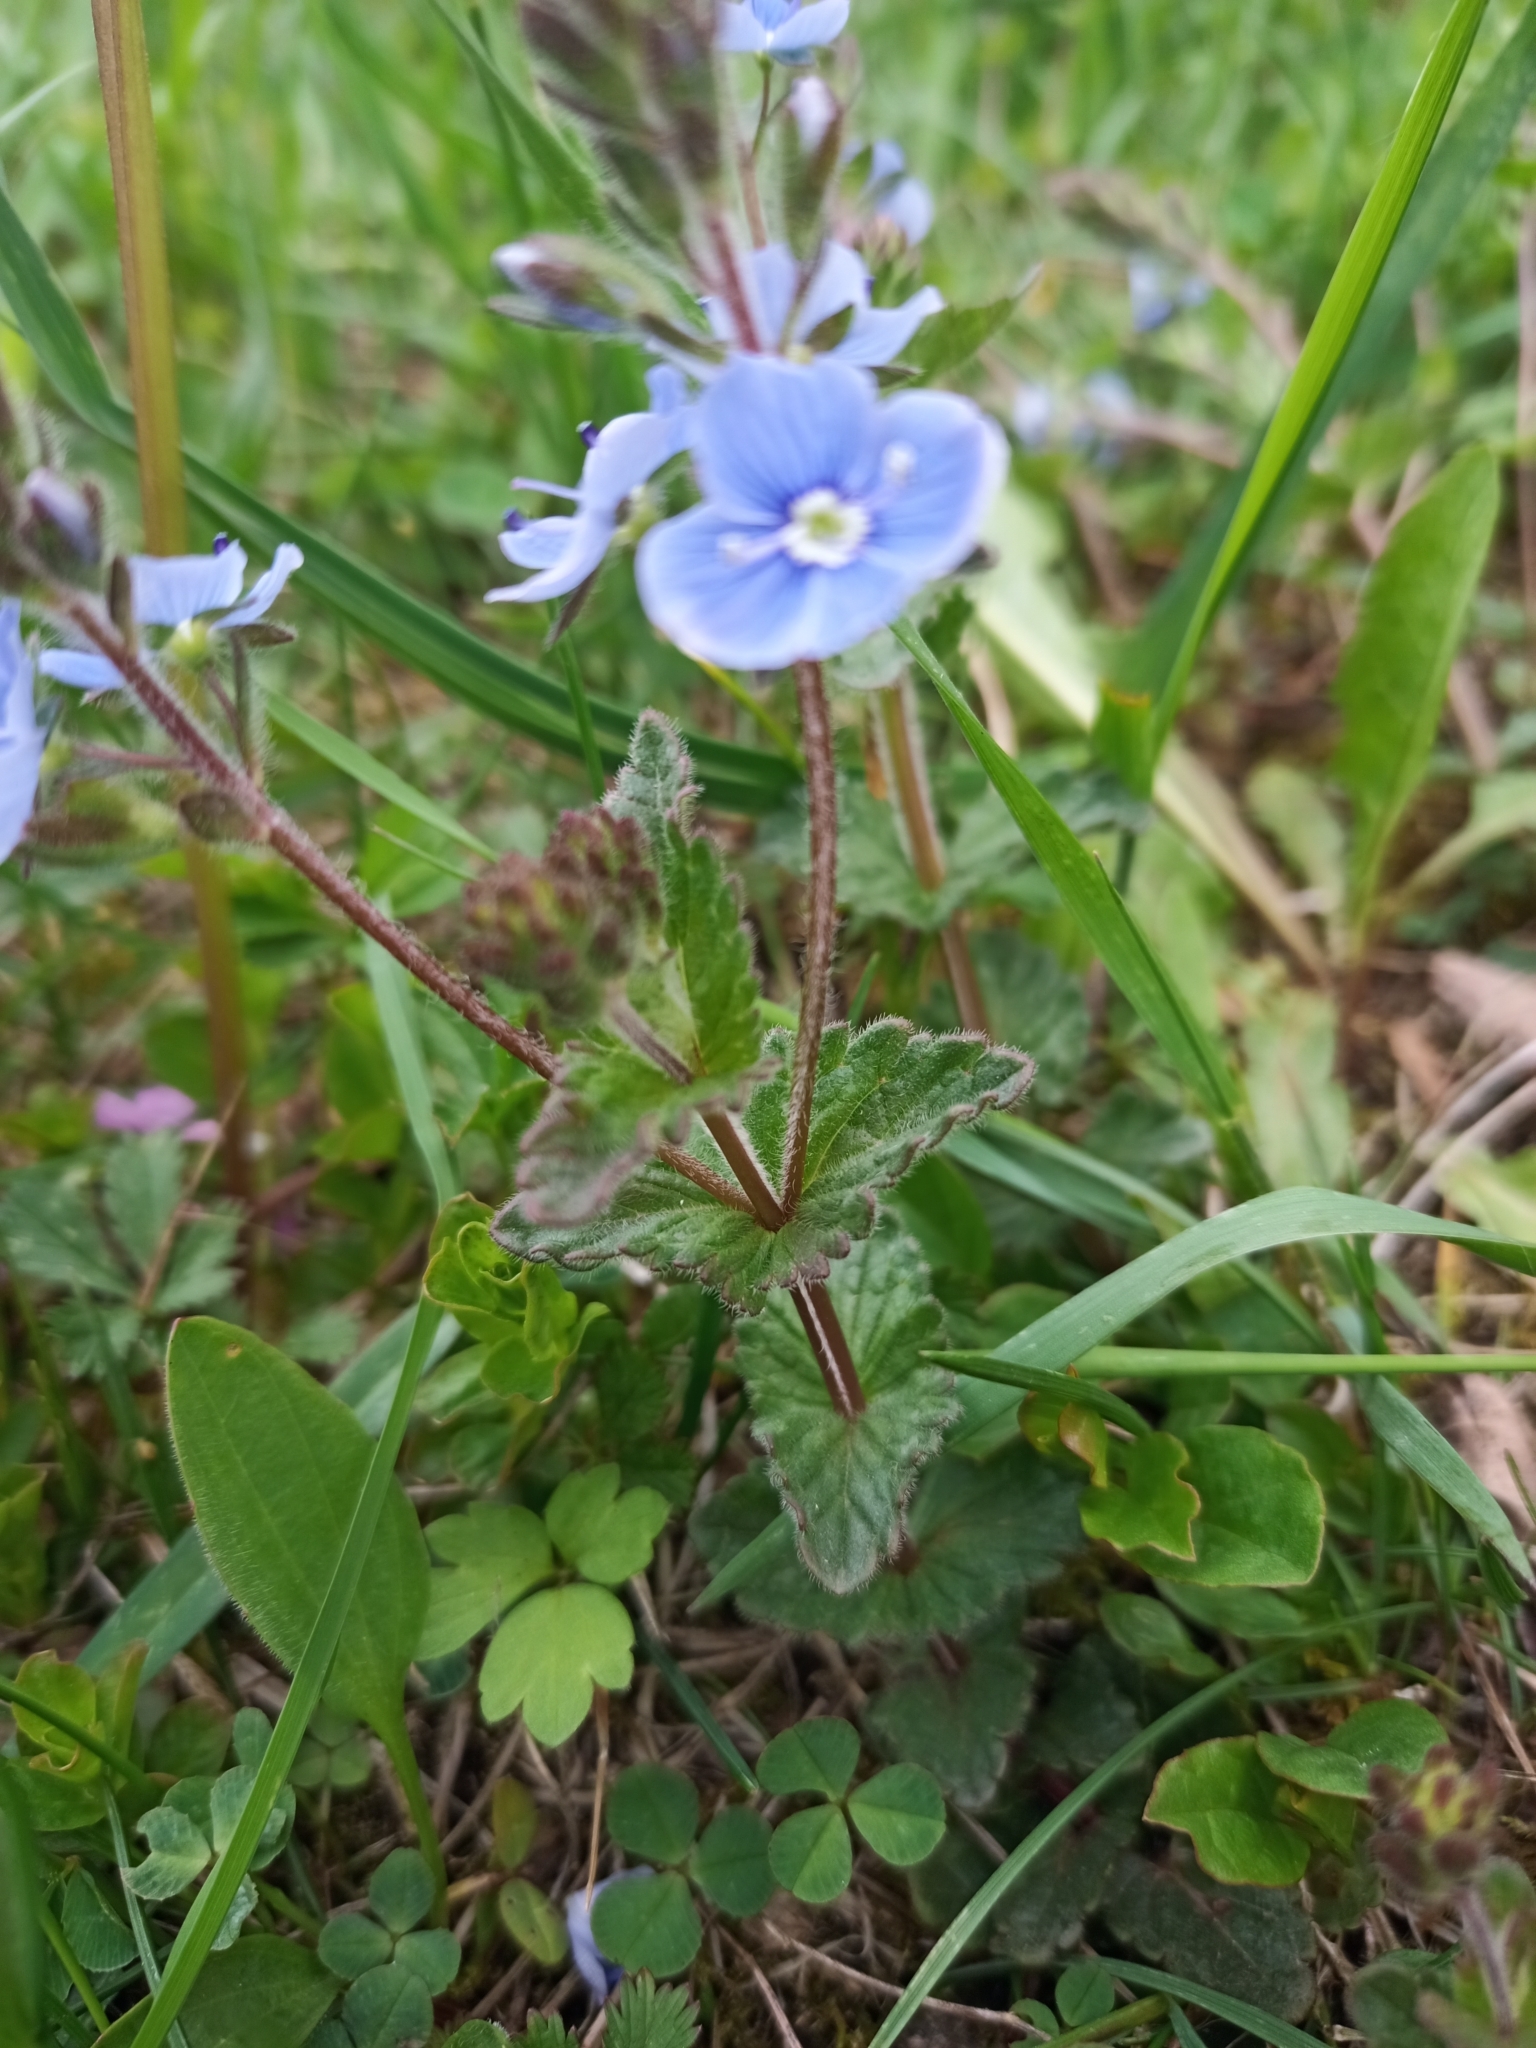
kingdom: Plantae
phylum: Tracheophyta
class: Magnoliopsida
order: Lamiales
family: Plantaginaceae
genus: Veronica
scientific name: Veronica chamaedrys
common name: Germander speedwell
